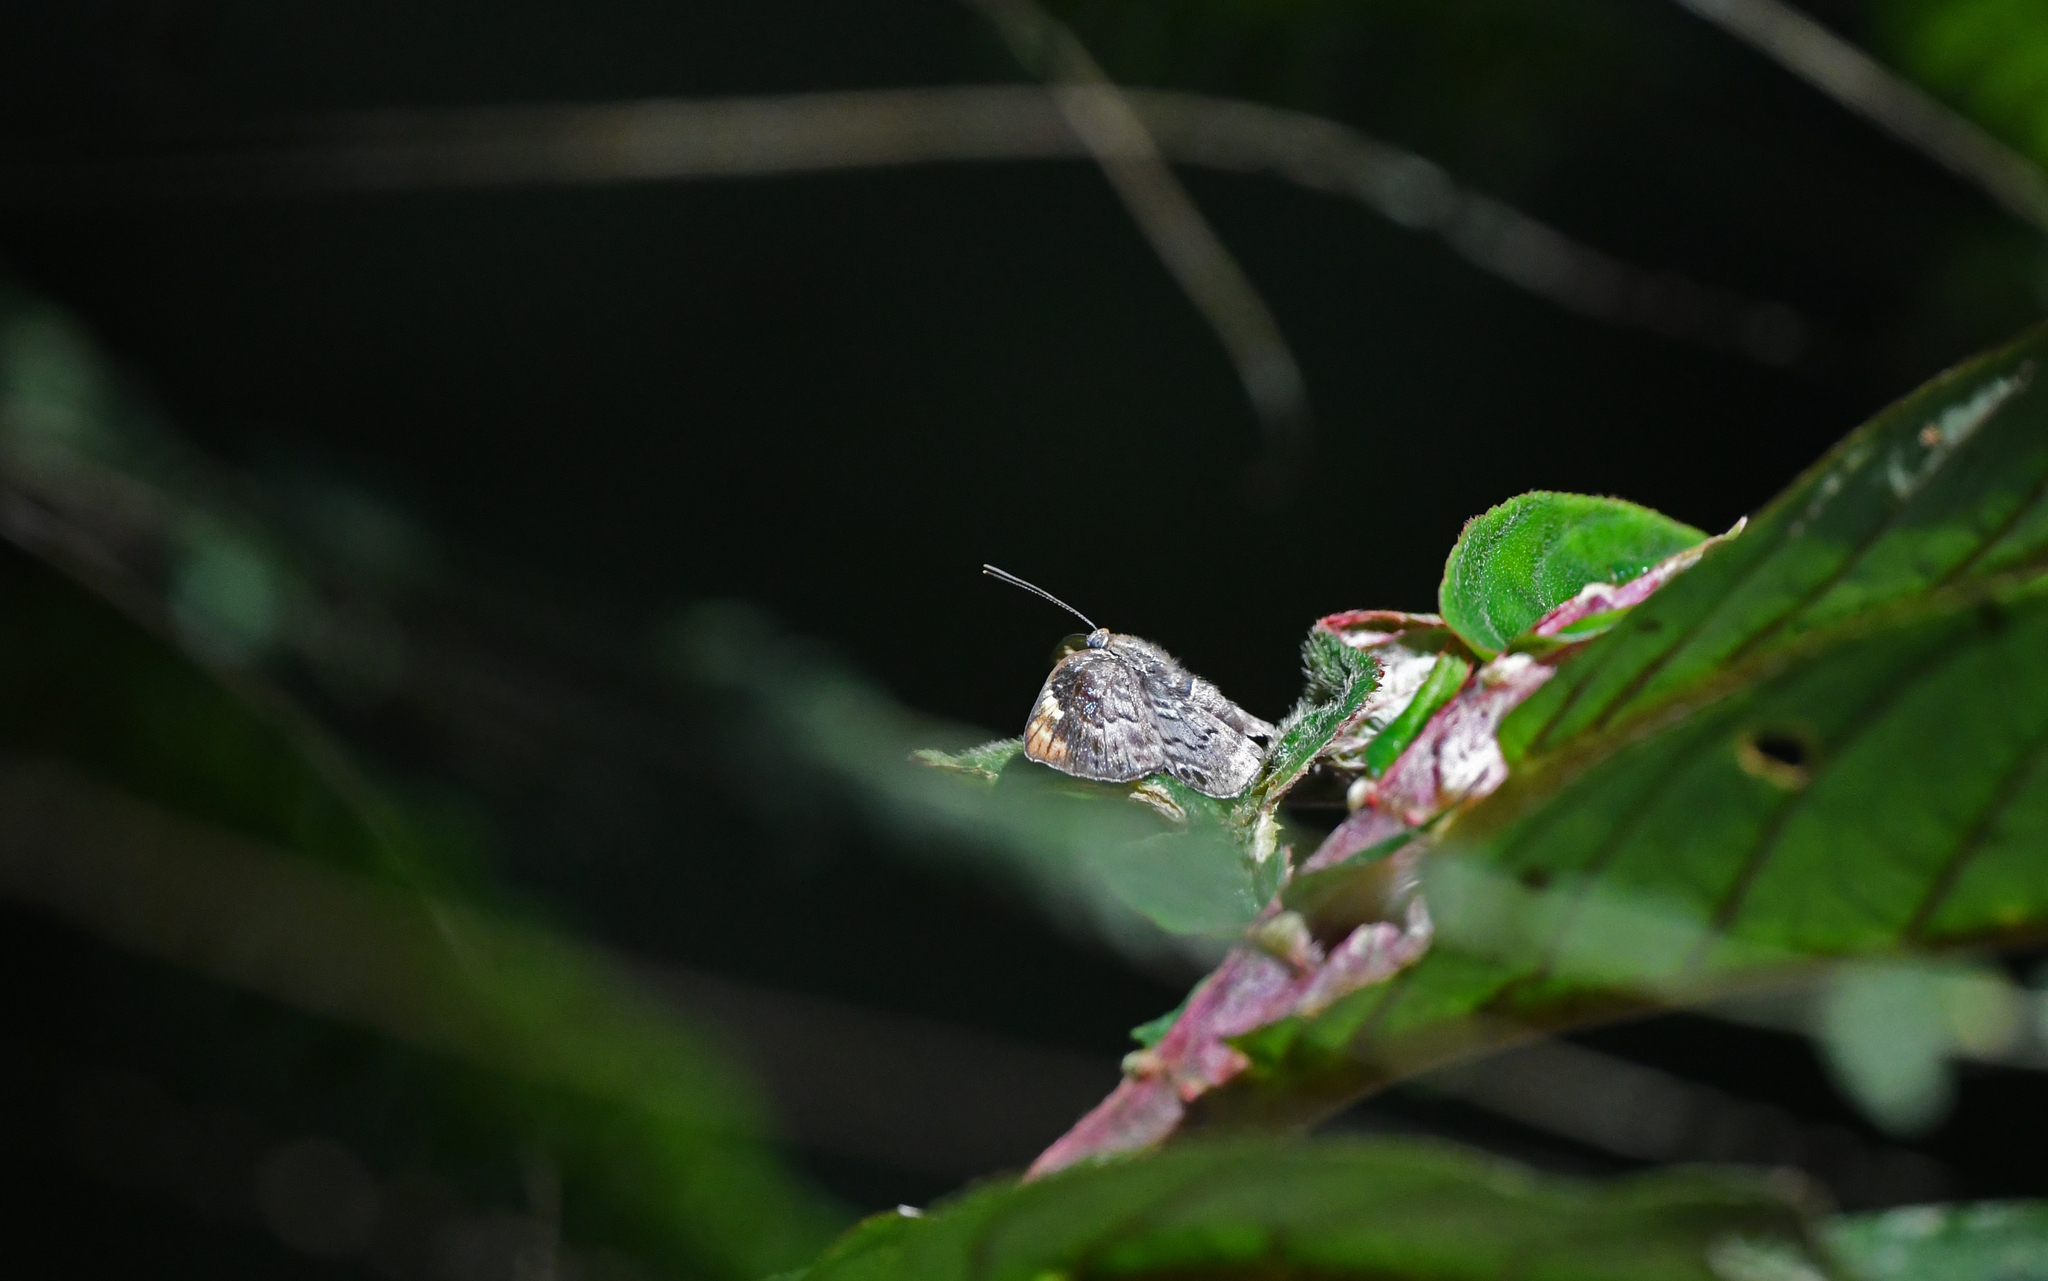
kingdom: Animalia
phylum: Arthropoda
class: Insecta
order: Lepidoptera
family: Riodinidae
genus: Periplacis
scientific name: Periplacis hebrus
